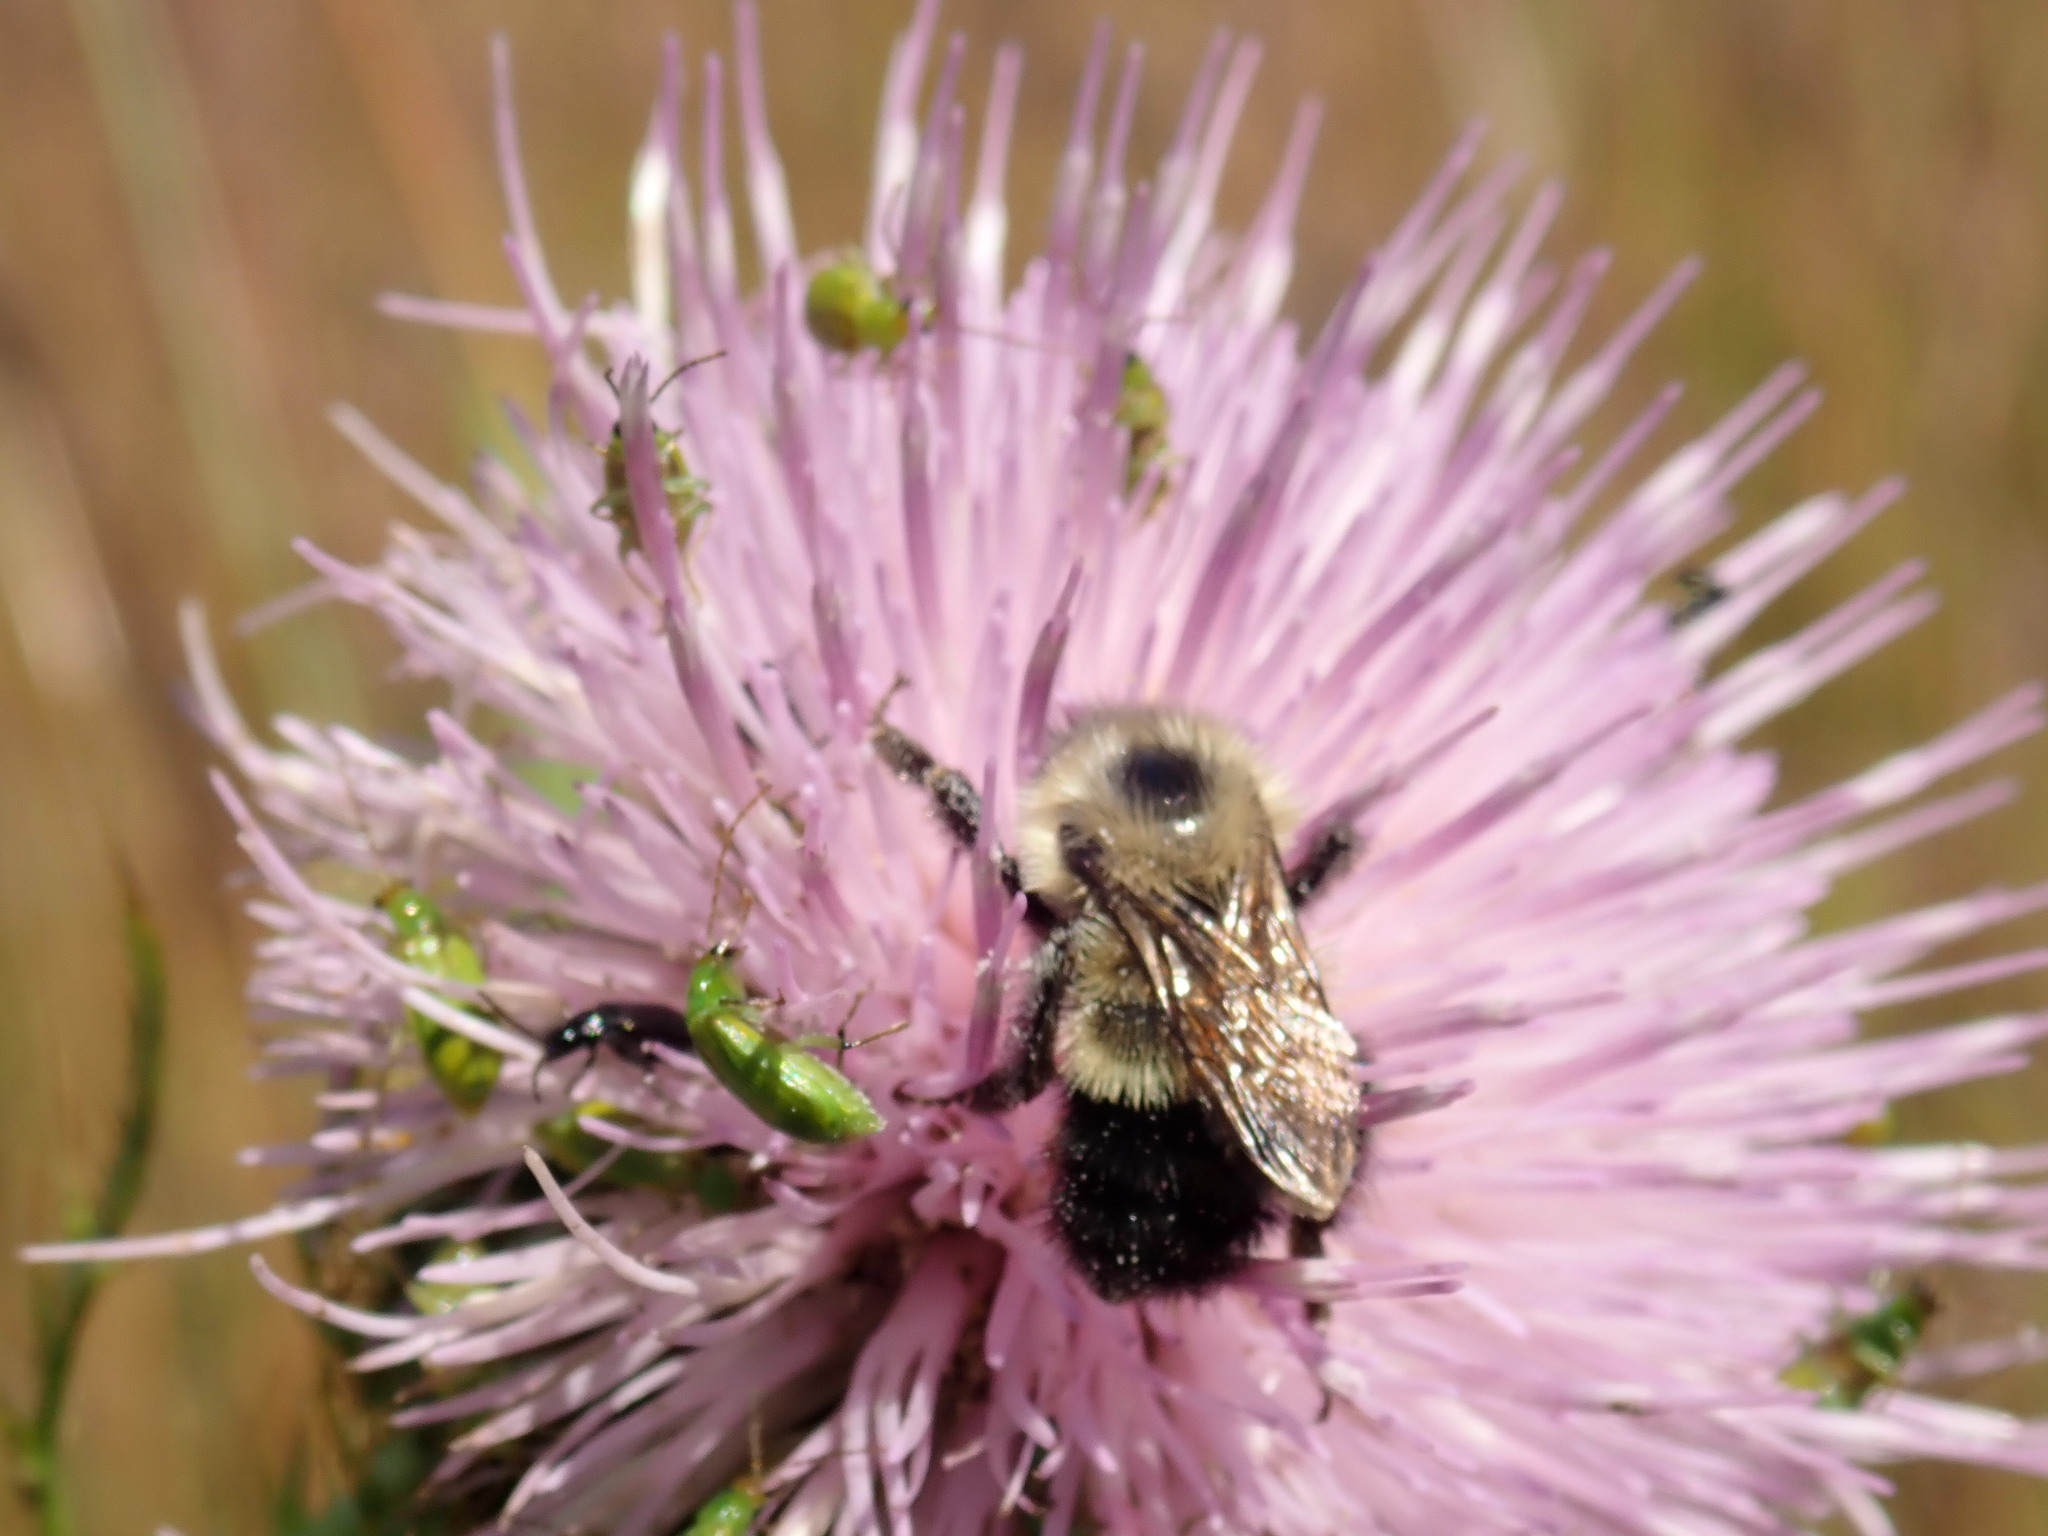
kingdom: Animalia
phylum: Arthropoda
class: Insecta
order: Hymenoptera
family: Apidae
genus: Bombus
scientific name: Bombus
